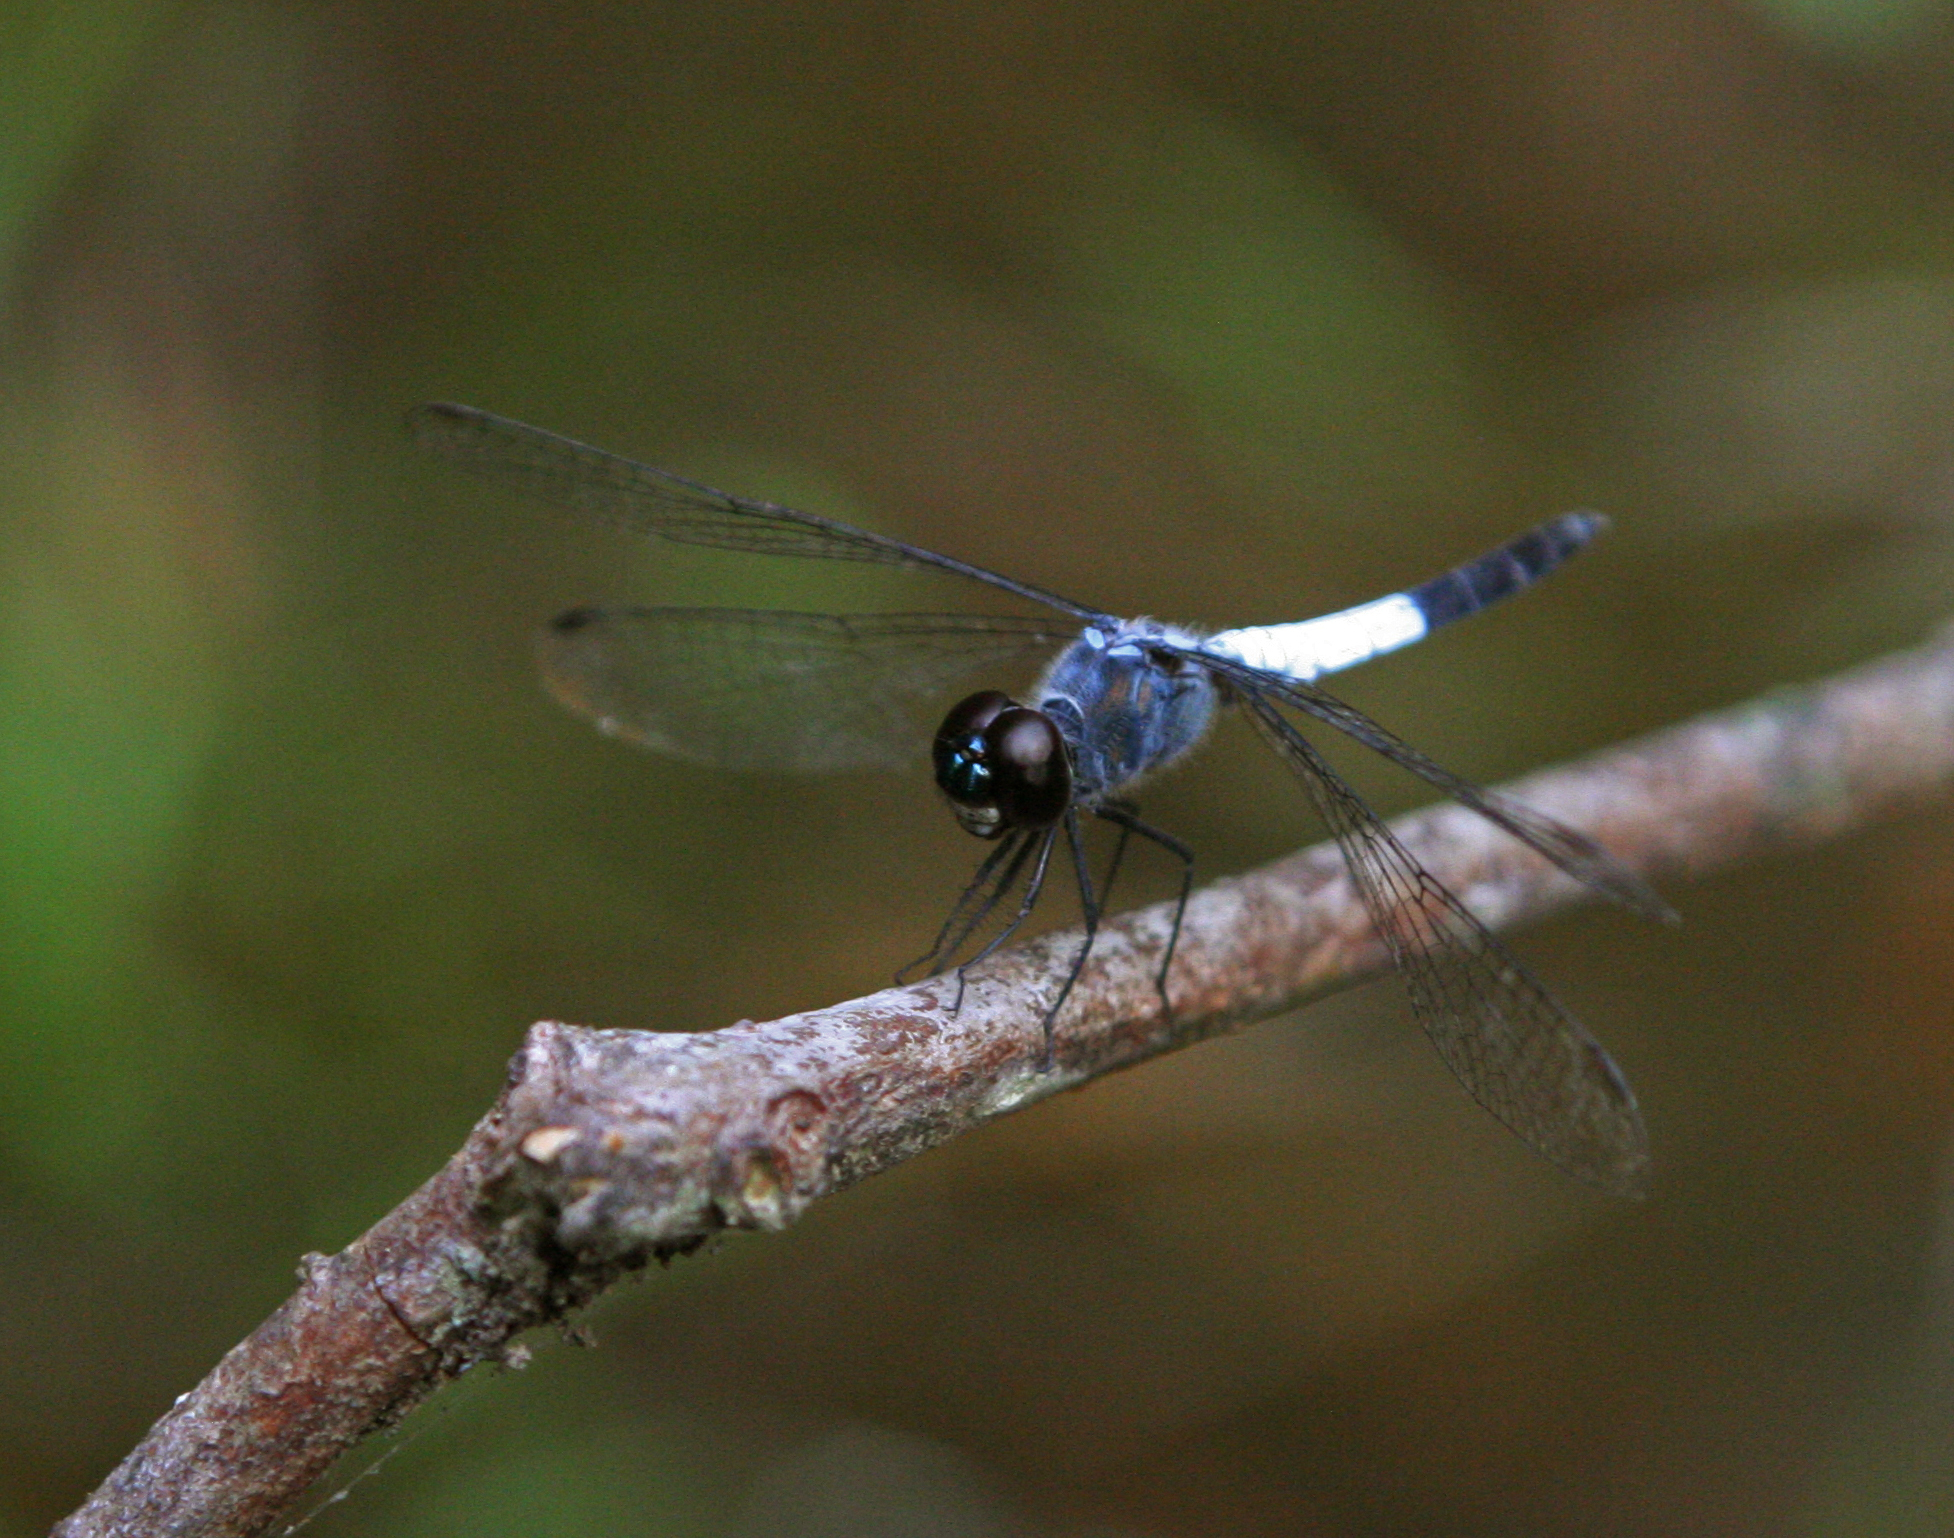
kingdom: Animalia
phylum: Arthropoda
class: Insecta
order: Odonata
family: Libellulidae
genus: Brachydiplax
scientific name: Brachydiplax farinosa
